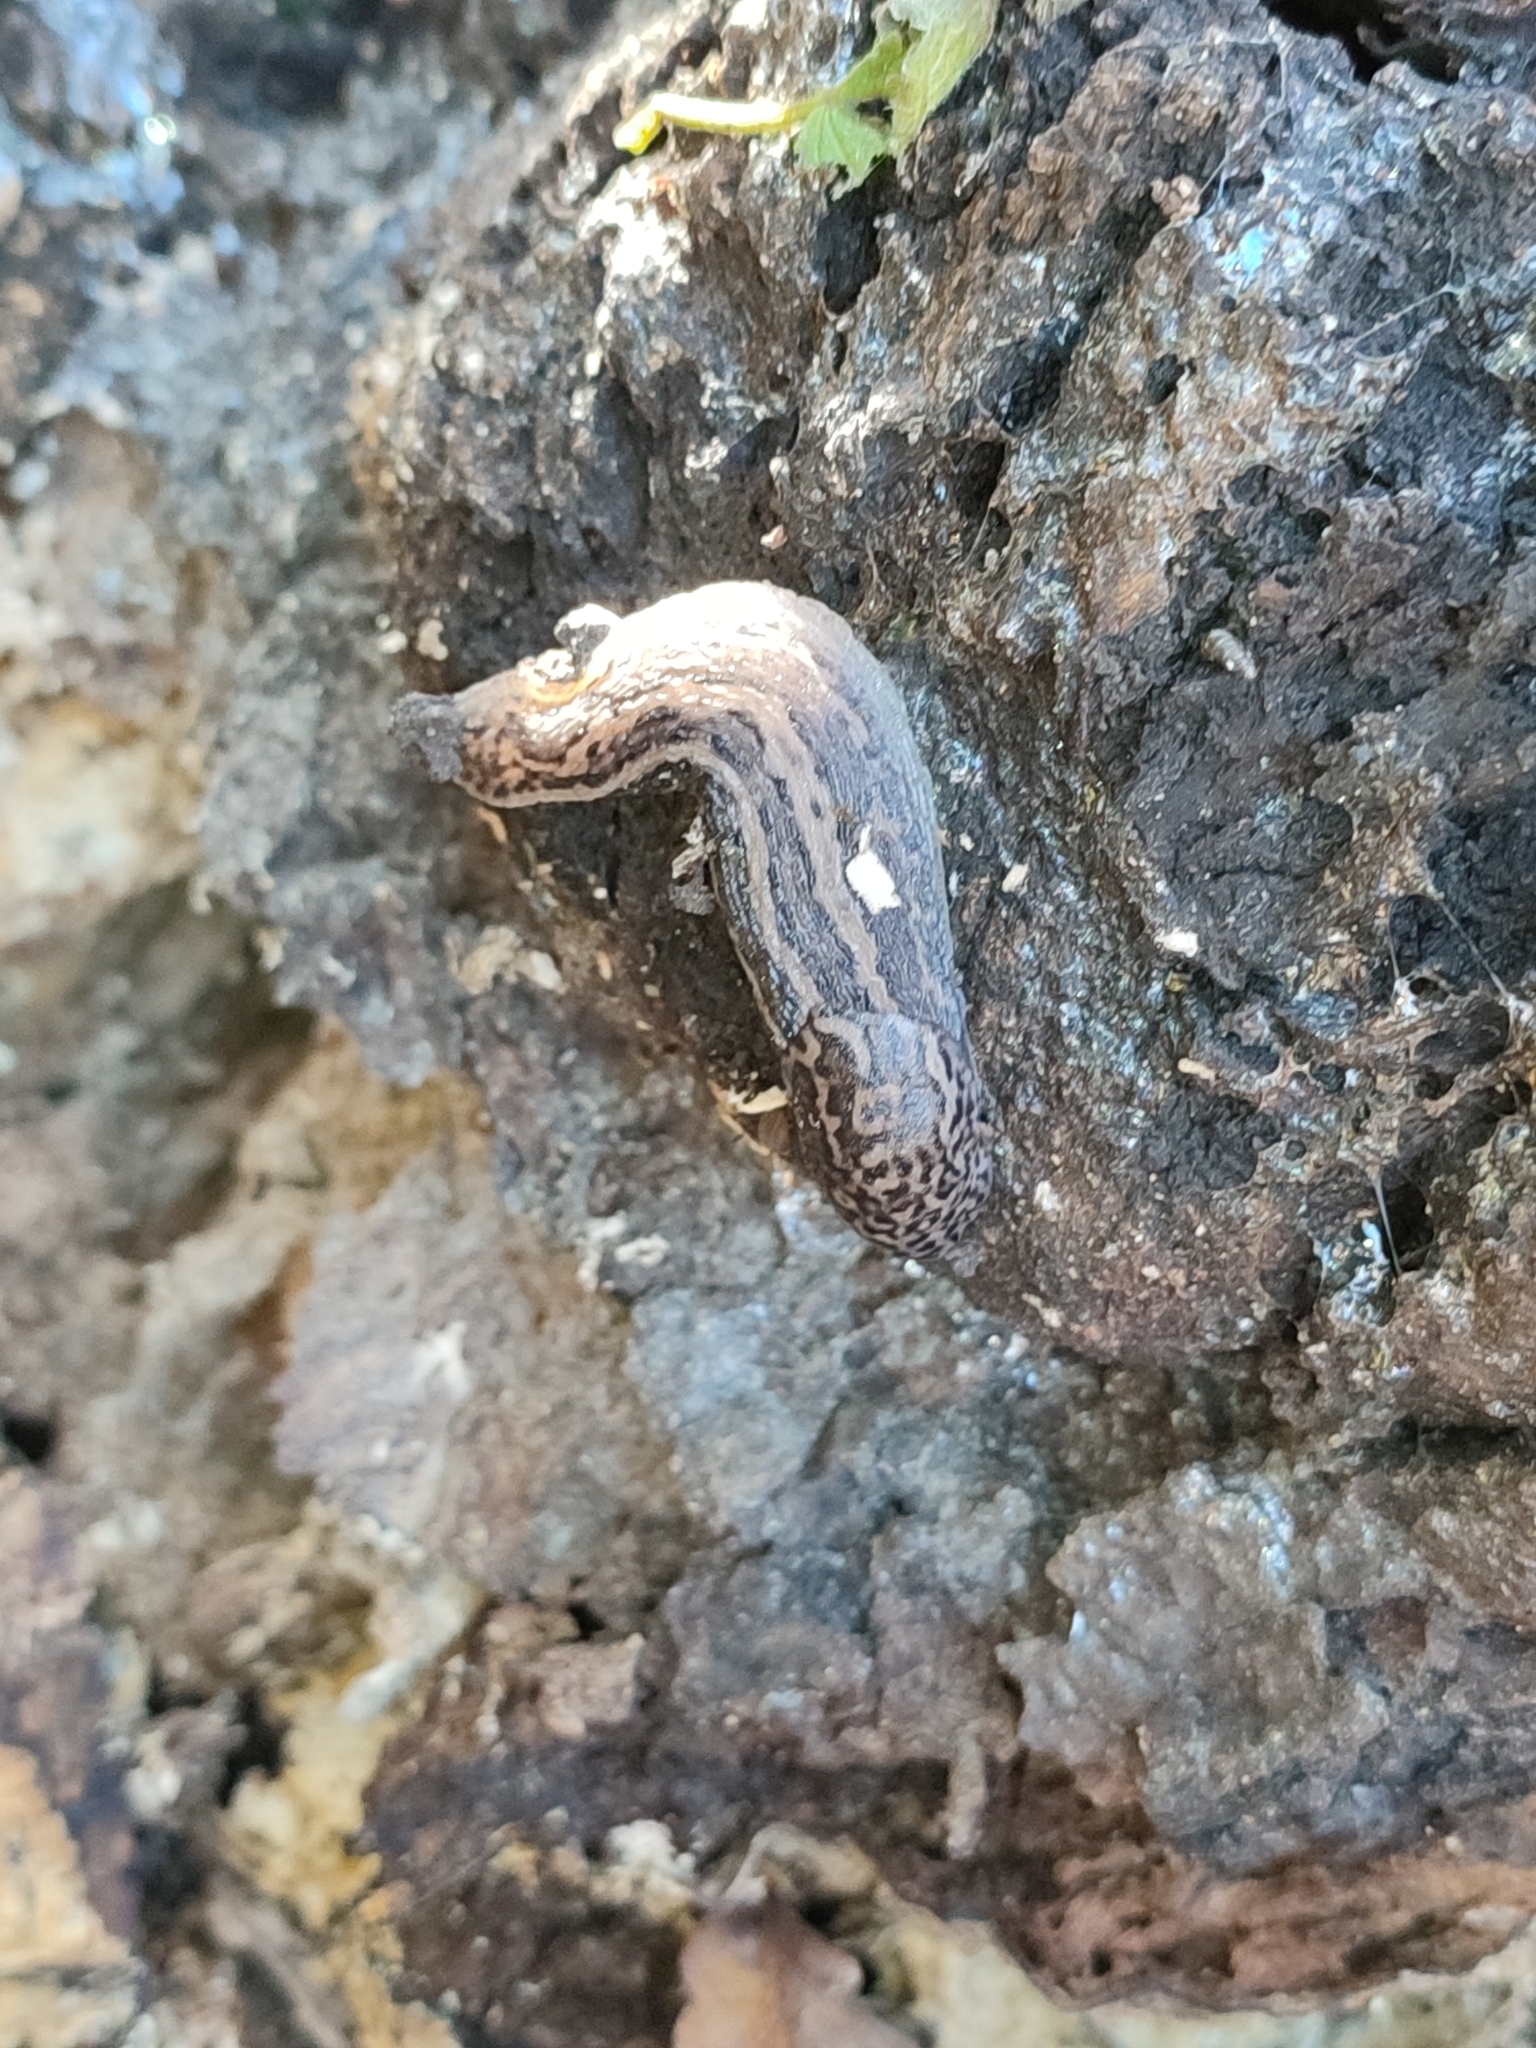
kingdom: Animalia
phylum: Mollusca
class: Gastropoda
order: Stylommatophora
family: Limacidae
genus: Limax
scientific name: Limax maximus
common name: Great grey slug
